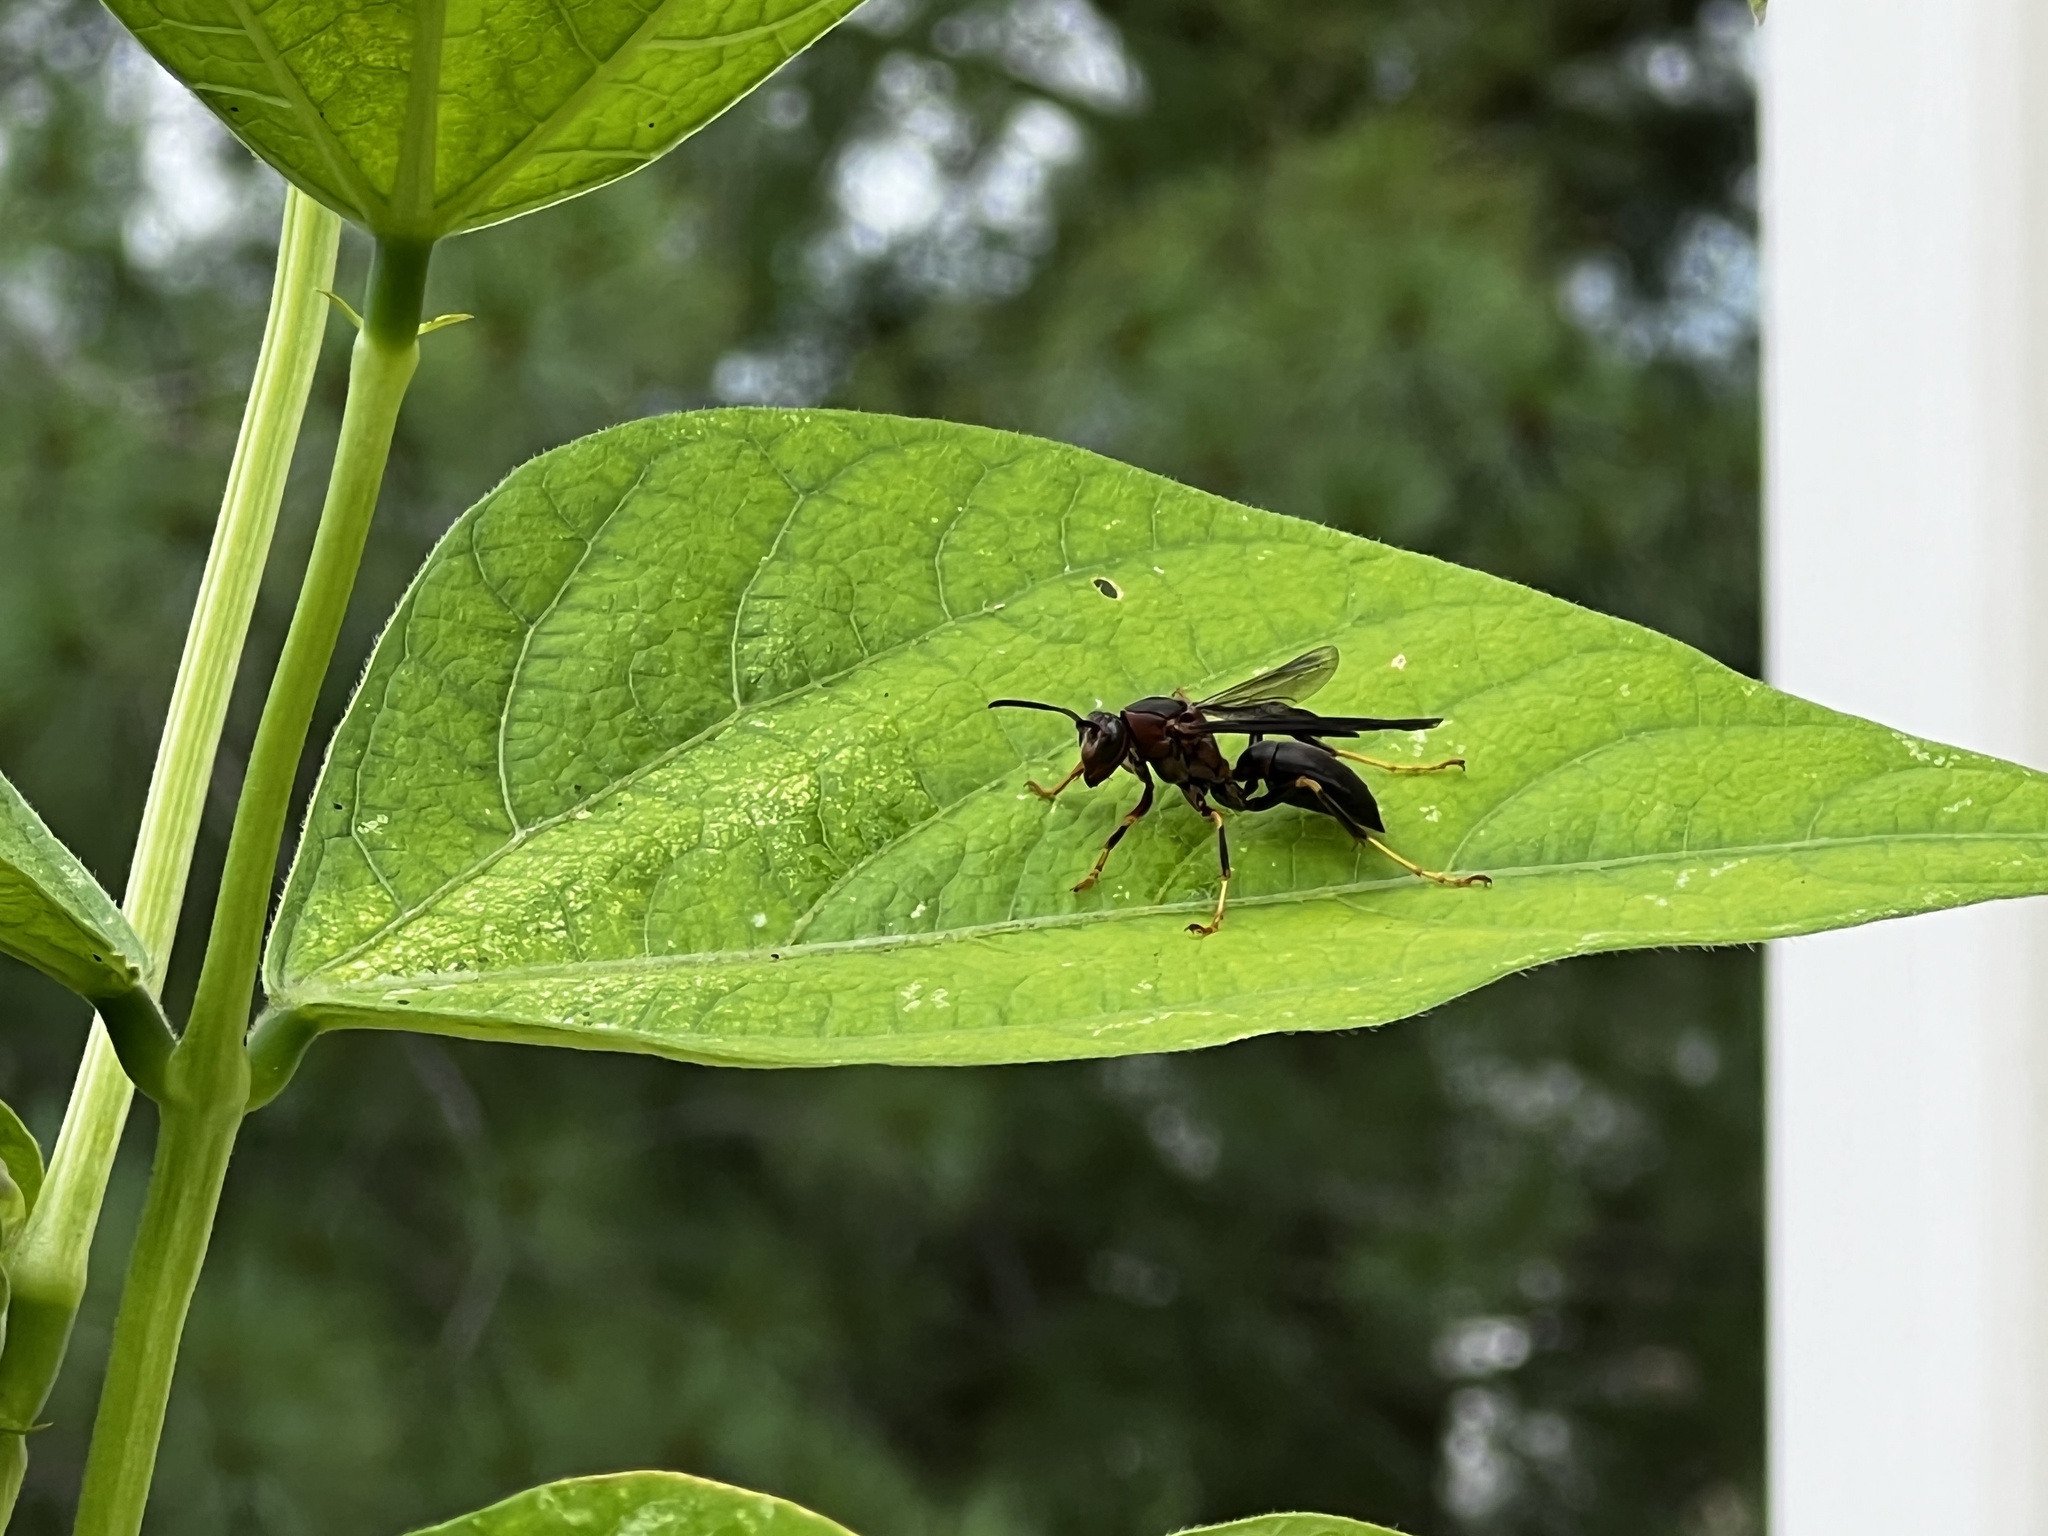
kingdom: Animalia
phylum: Arthropoda
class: Insecta
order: Hymenoptera
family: Eumenidae
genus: Polistes
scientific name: Polistes metricus
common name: Metric paper wasp
